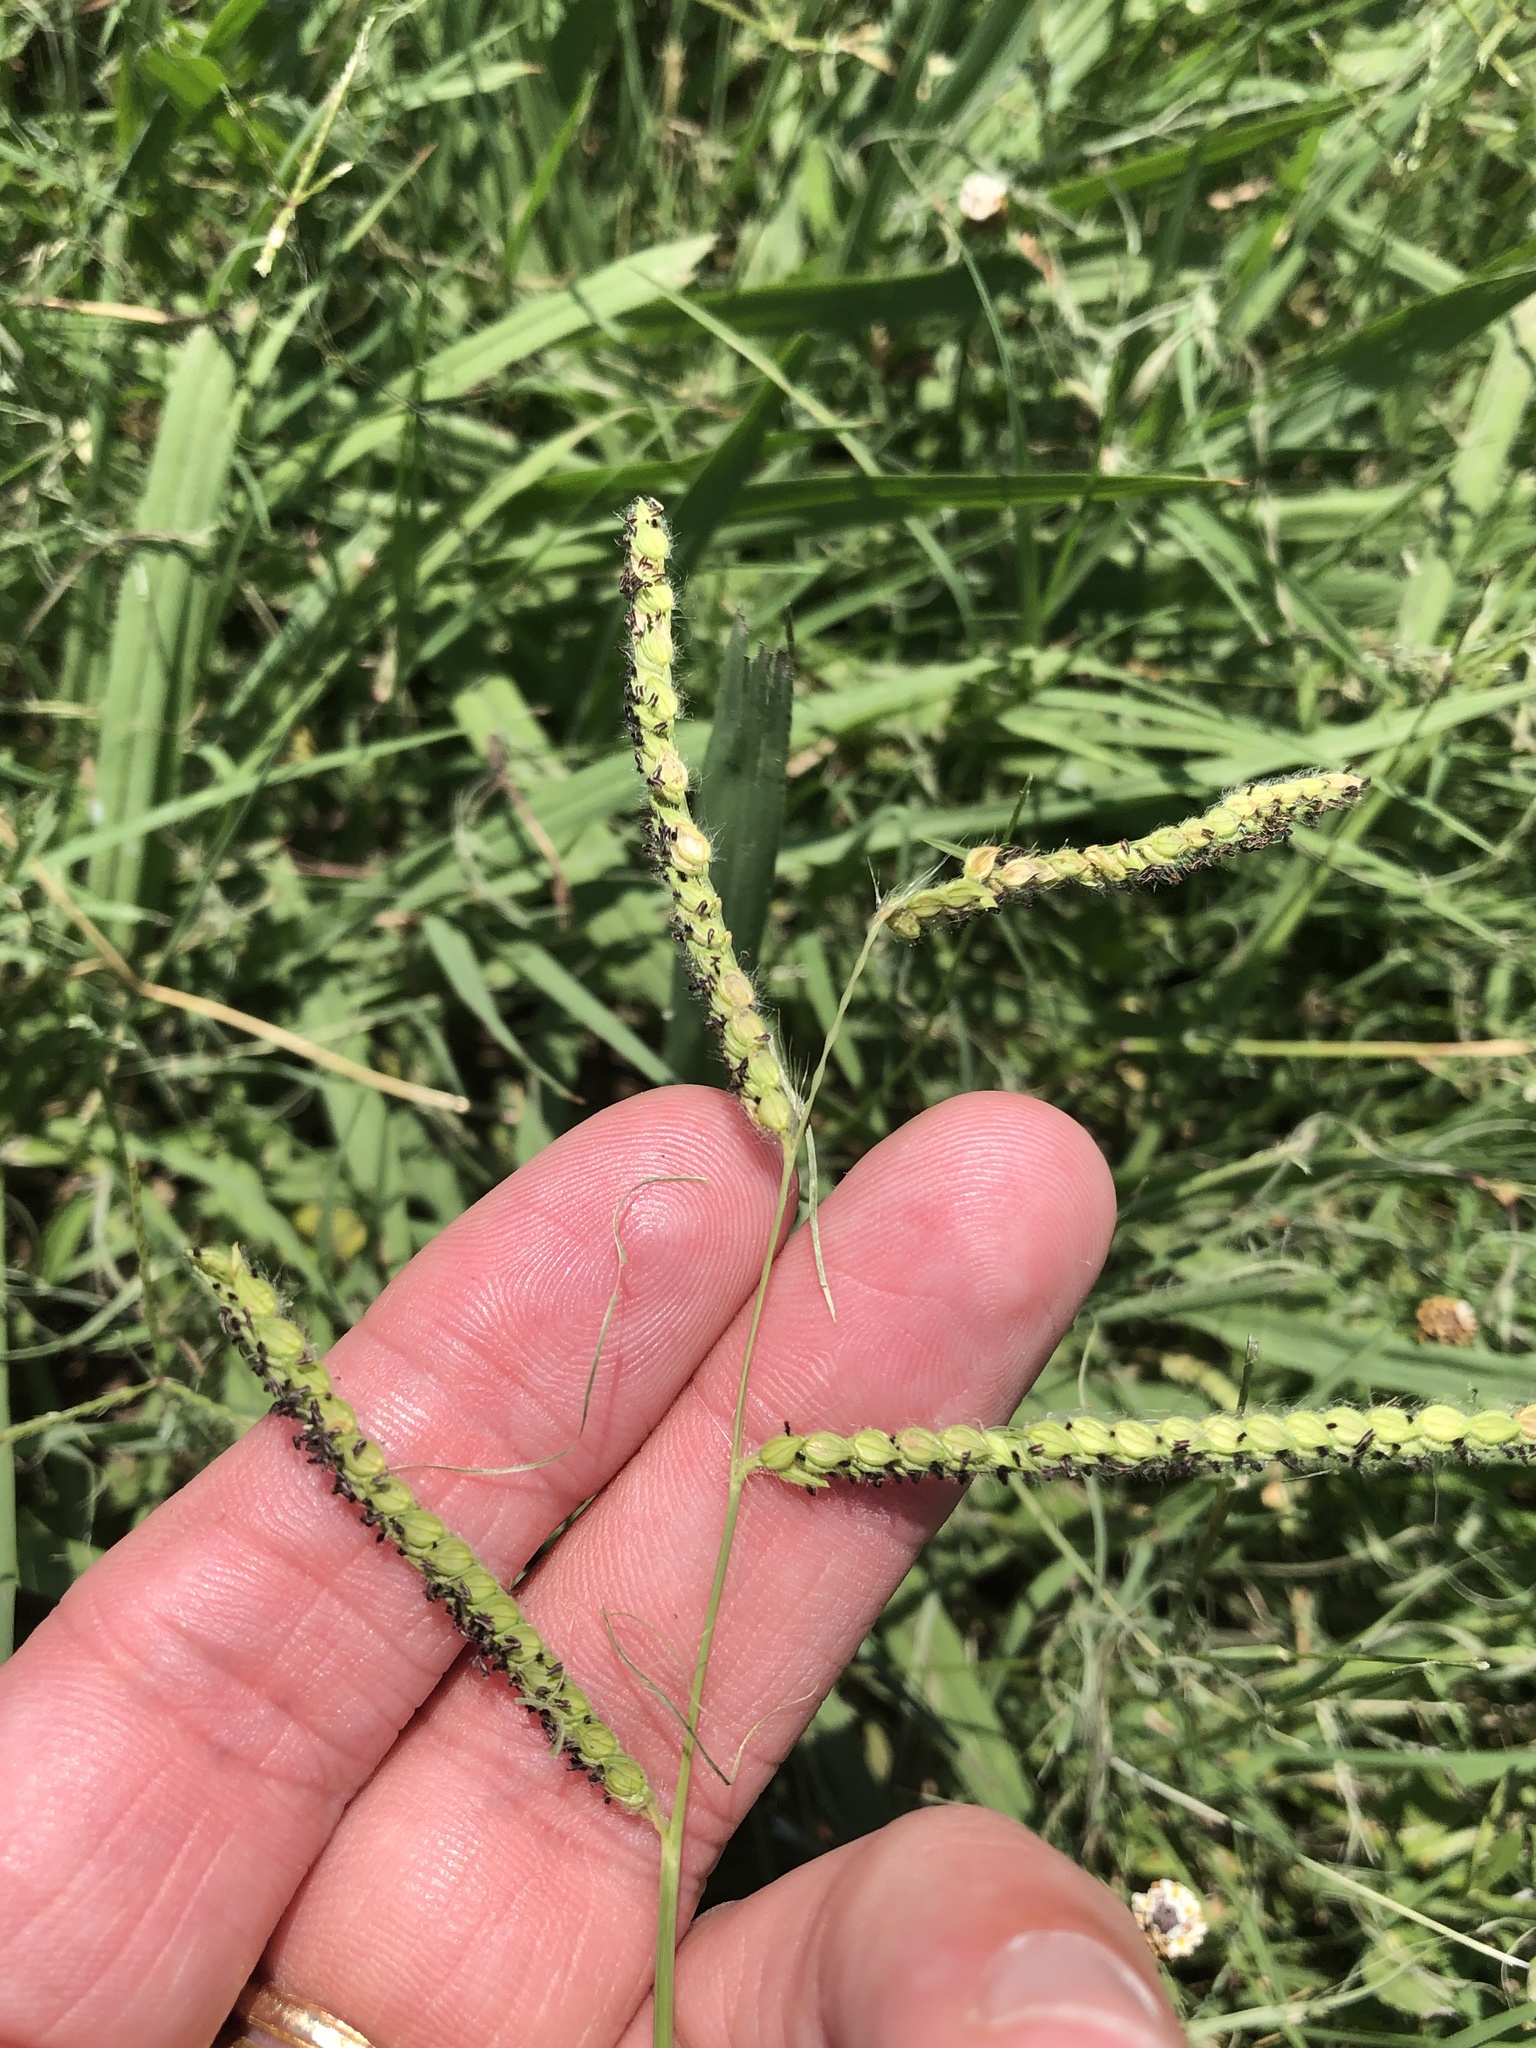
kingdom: Plantae
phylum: Tracheophyta
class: Liliopsida
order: Poales
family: Poaceae
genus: Paspalum
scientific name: Paspalum dilatatum
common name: Dallisgrass
